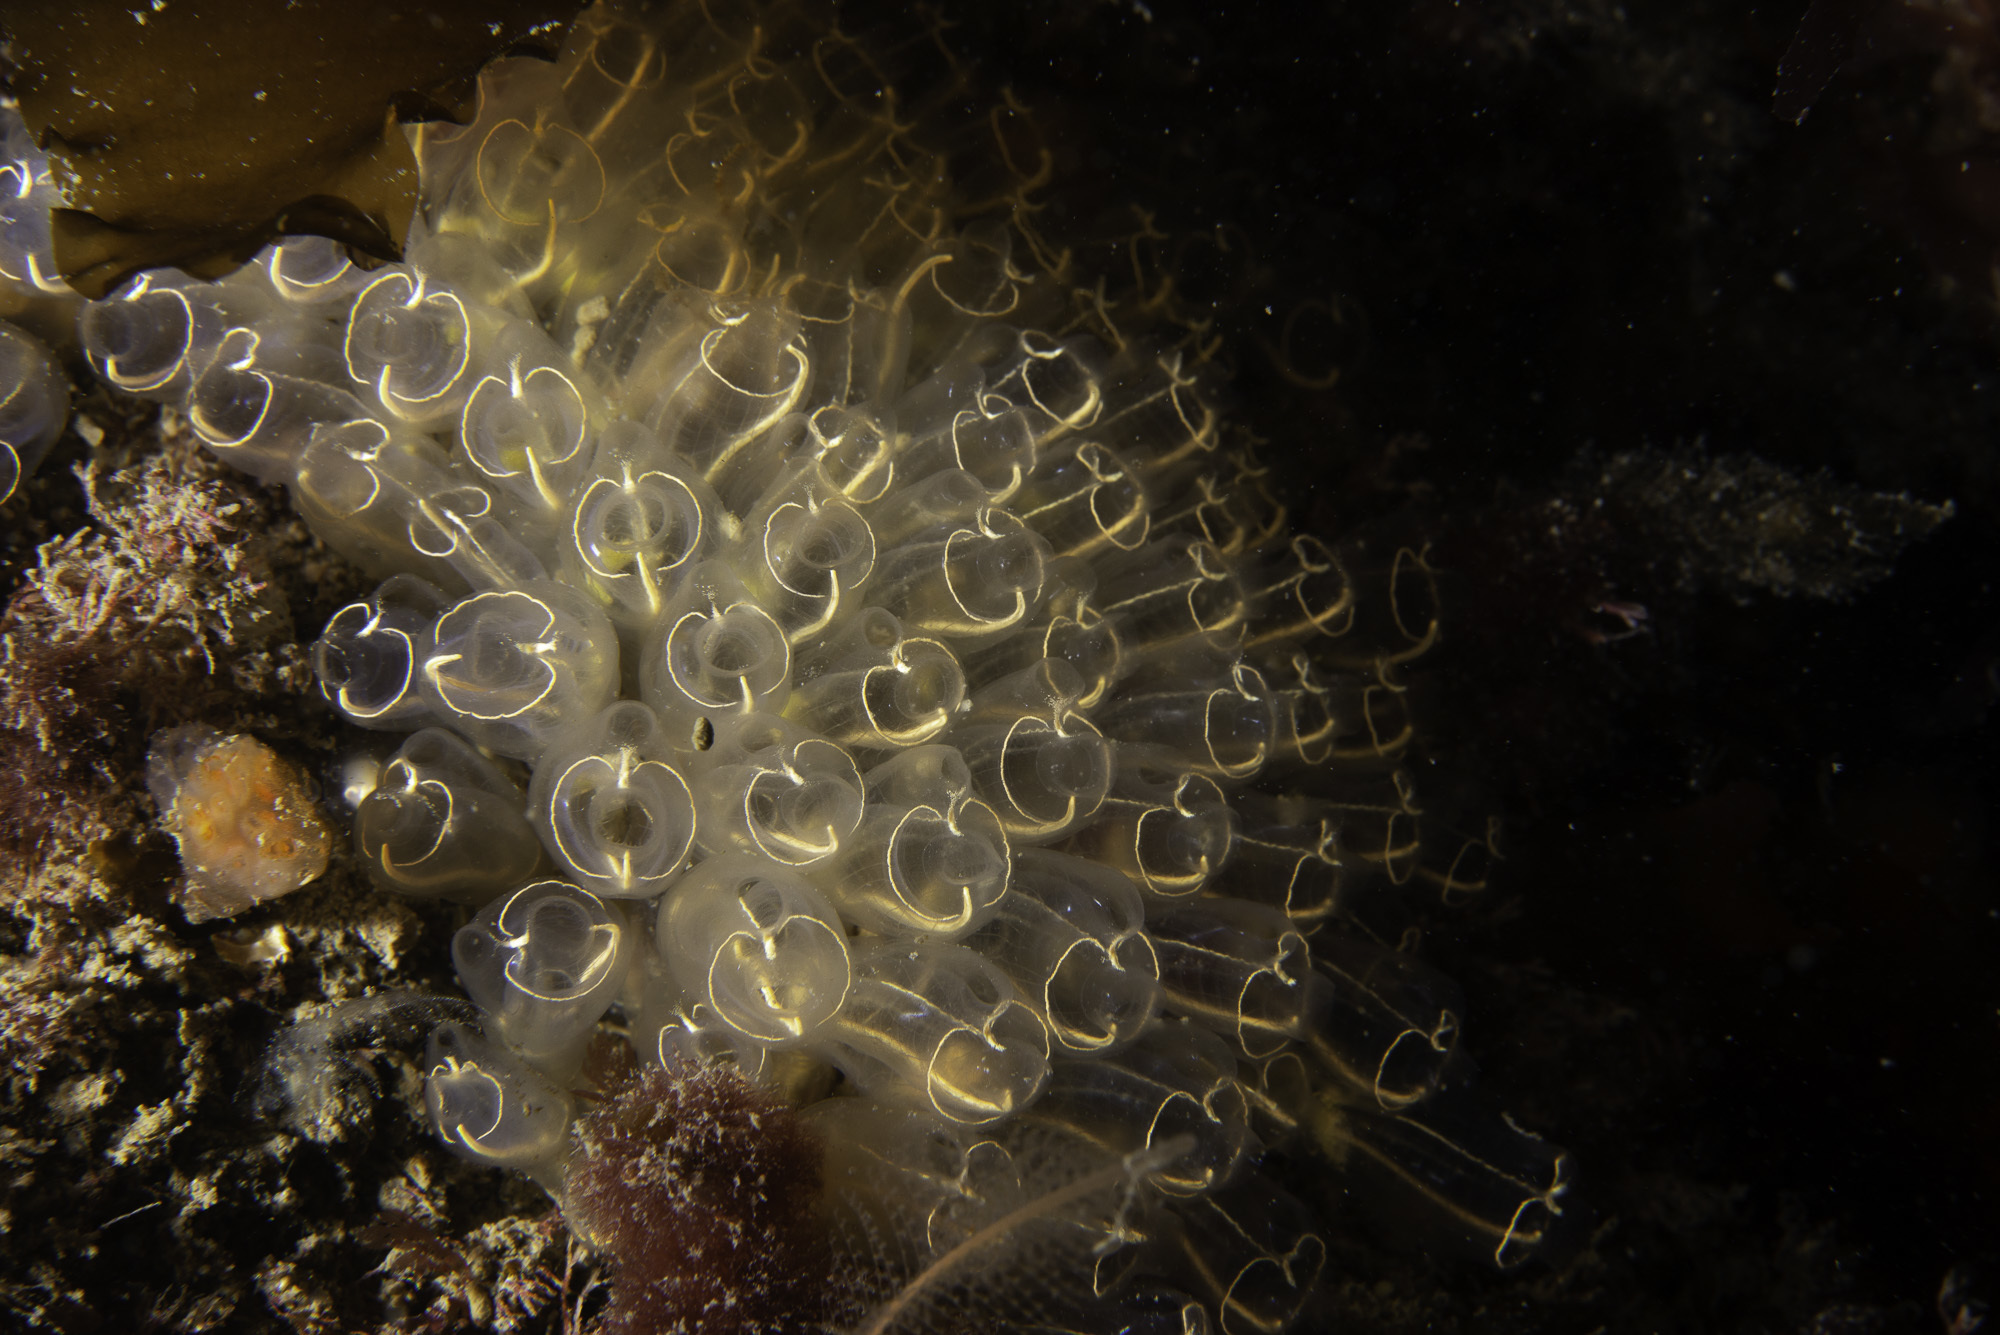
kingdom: Animalia
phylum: Chordata
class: Ascidiacea
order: Aplousobranchia
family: Clavelinidae
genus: Clavelina
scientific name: Clavelina lepadiformis
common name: Light bulb tunicate
